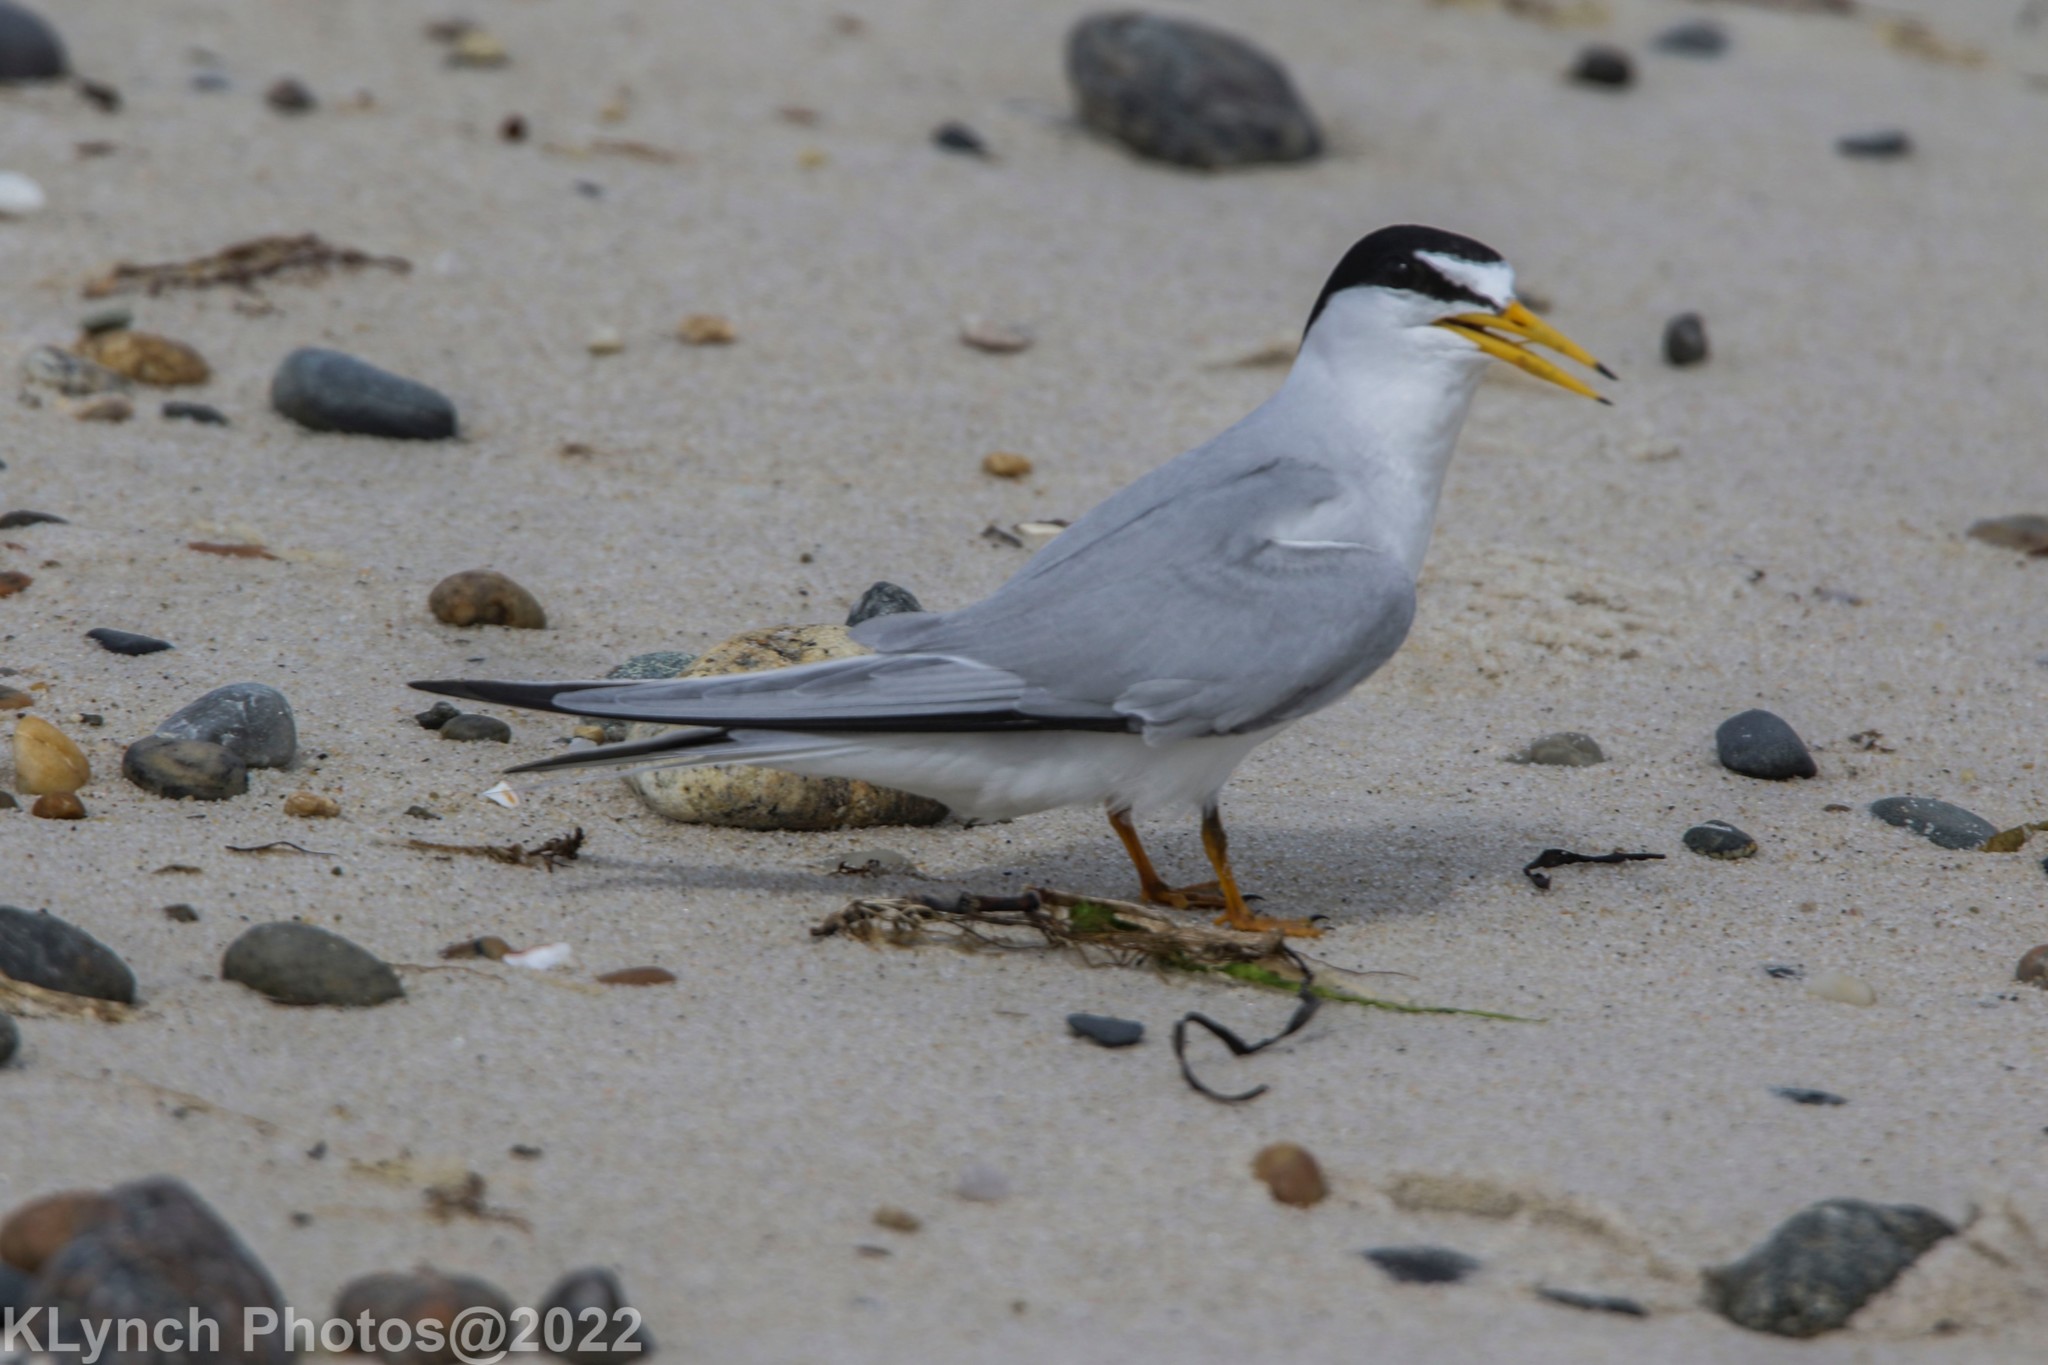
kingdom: Animalia
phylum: Chordata
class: Aves
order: Charadriiformes
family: Laridae
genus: Sternula
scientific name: Sternula antillarum
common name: Least tern
